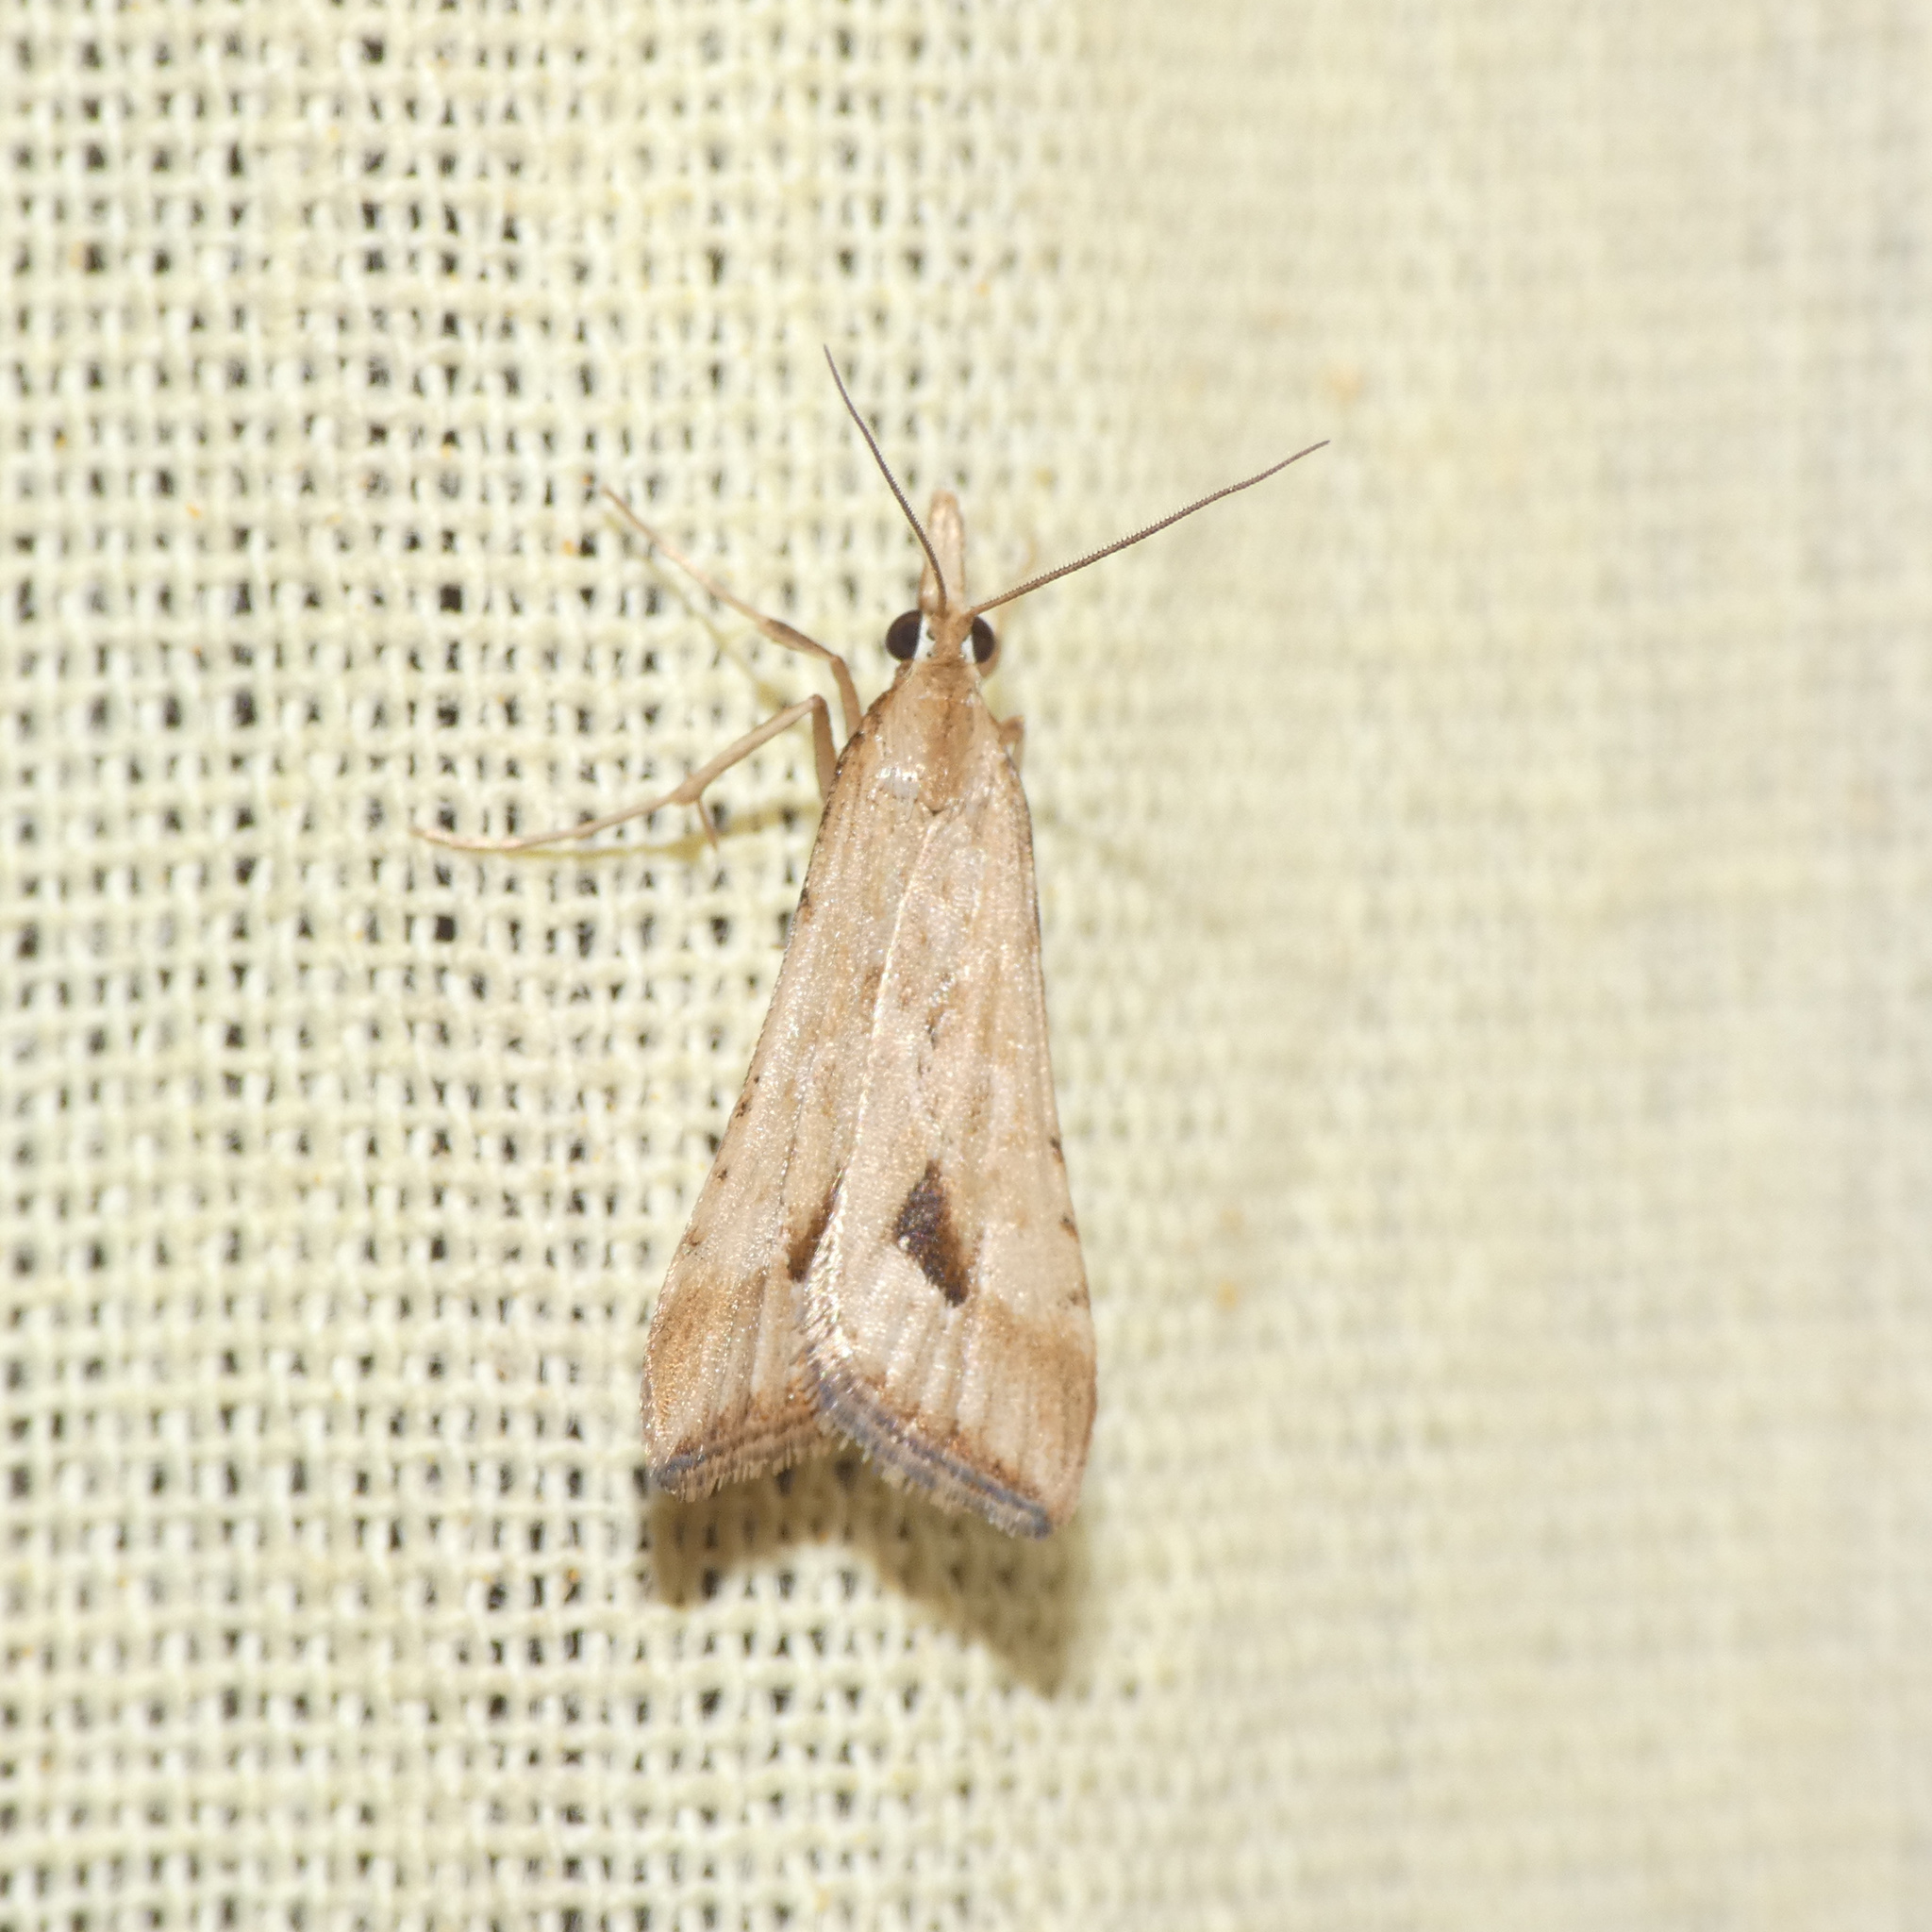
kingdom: Animalia
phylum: Arthropoda
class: Insecta
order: Lepidoptera
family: Crambidae
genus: Diasemia
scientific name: Diasemia monostigma
